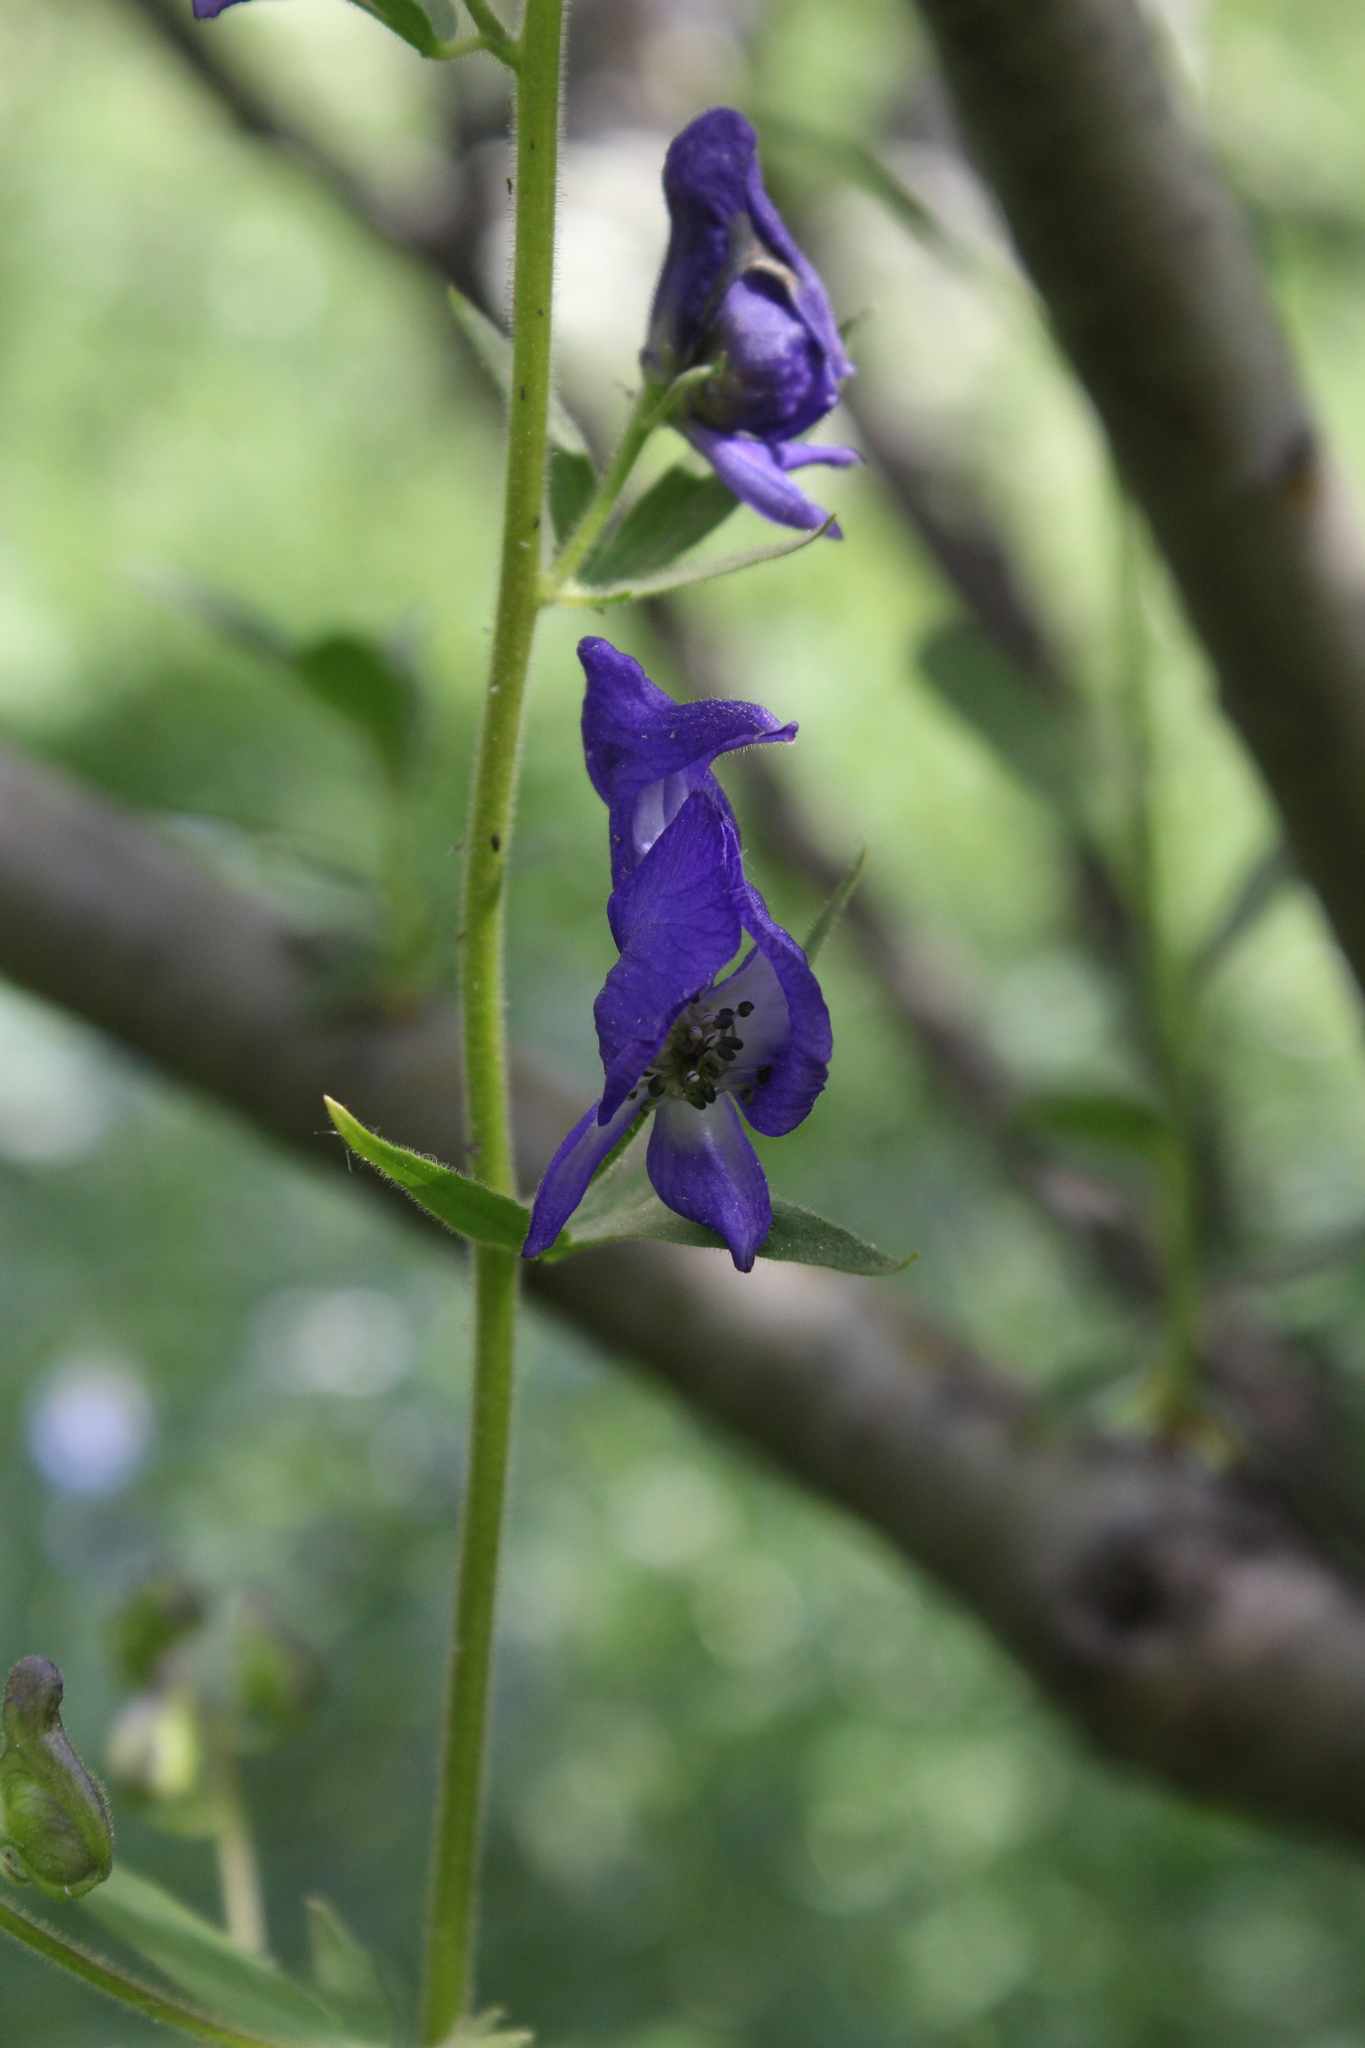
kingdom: Plantae
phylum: Tracheophyta
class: Magnoliopsida
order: Ranunculales
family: Ranunculaceae
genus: Aconitum
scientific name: Aconitum columbianum
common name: Columbia aconite
